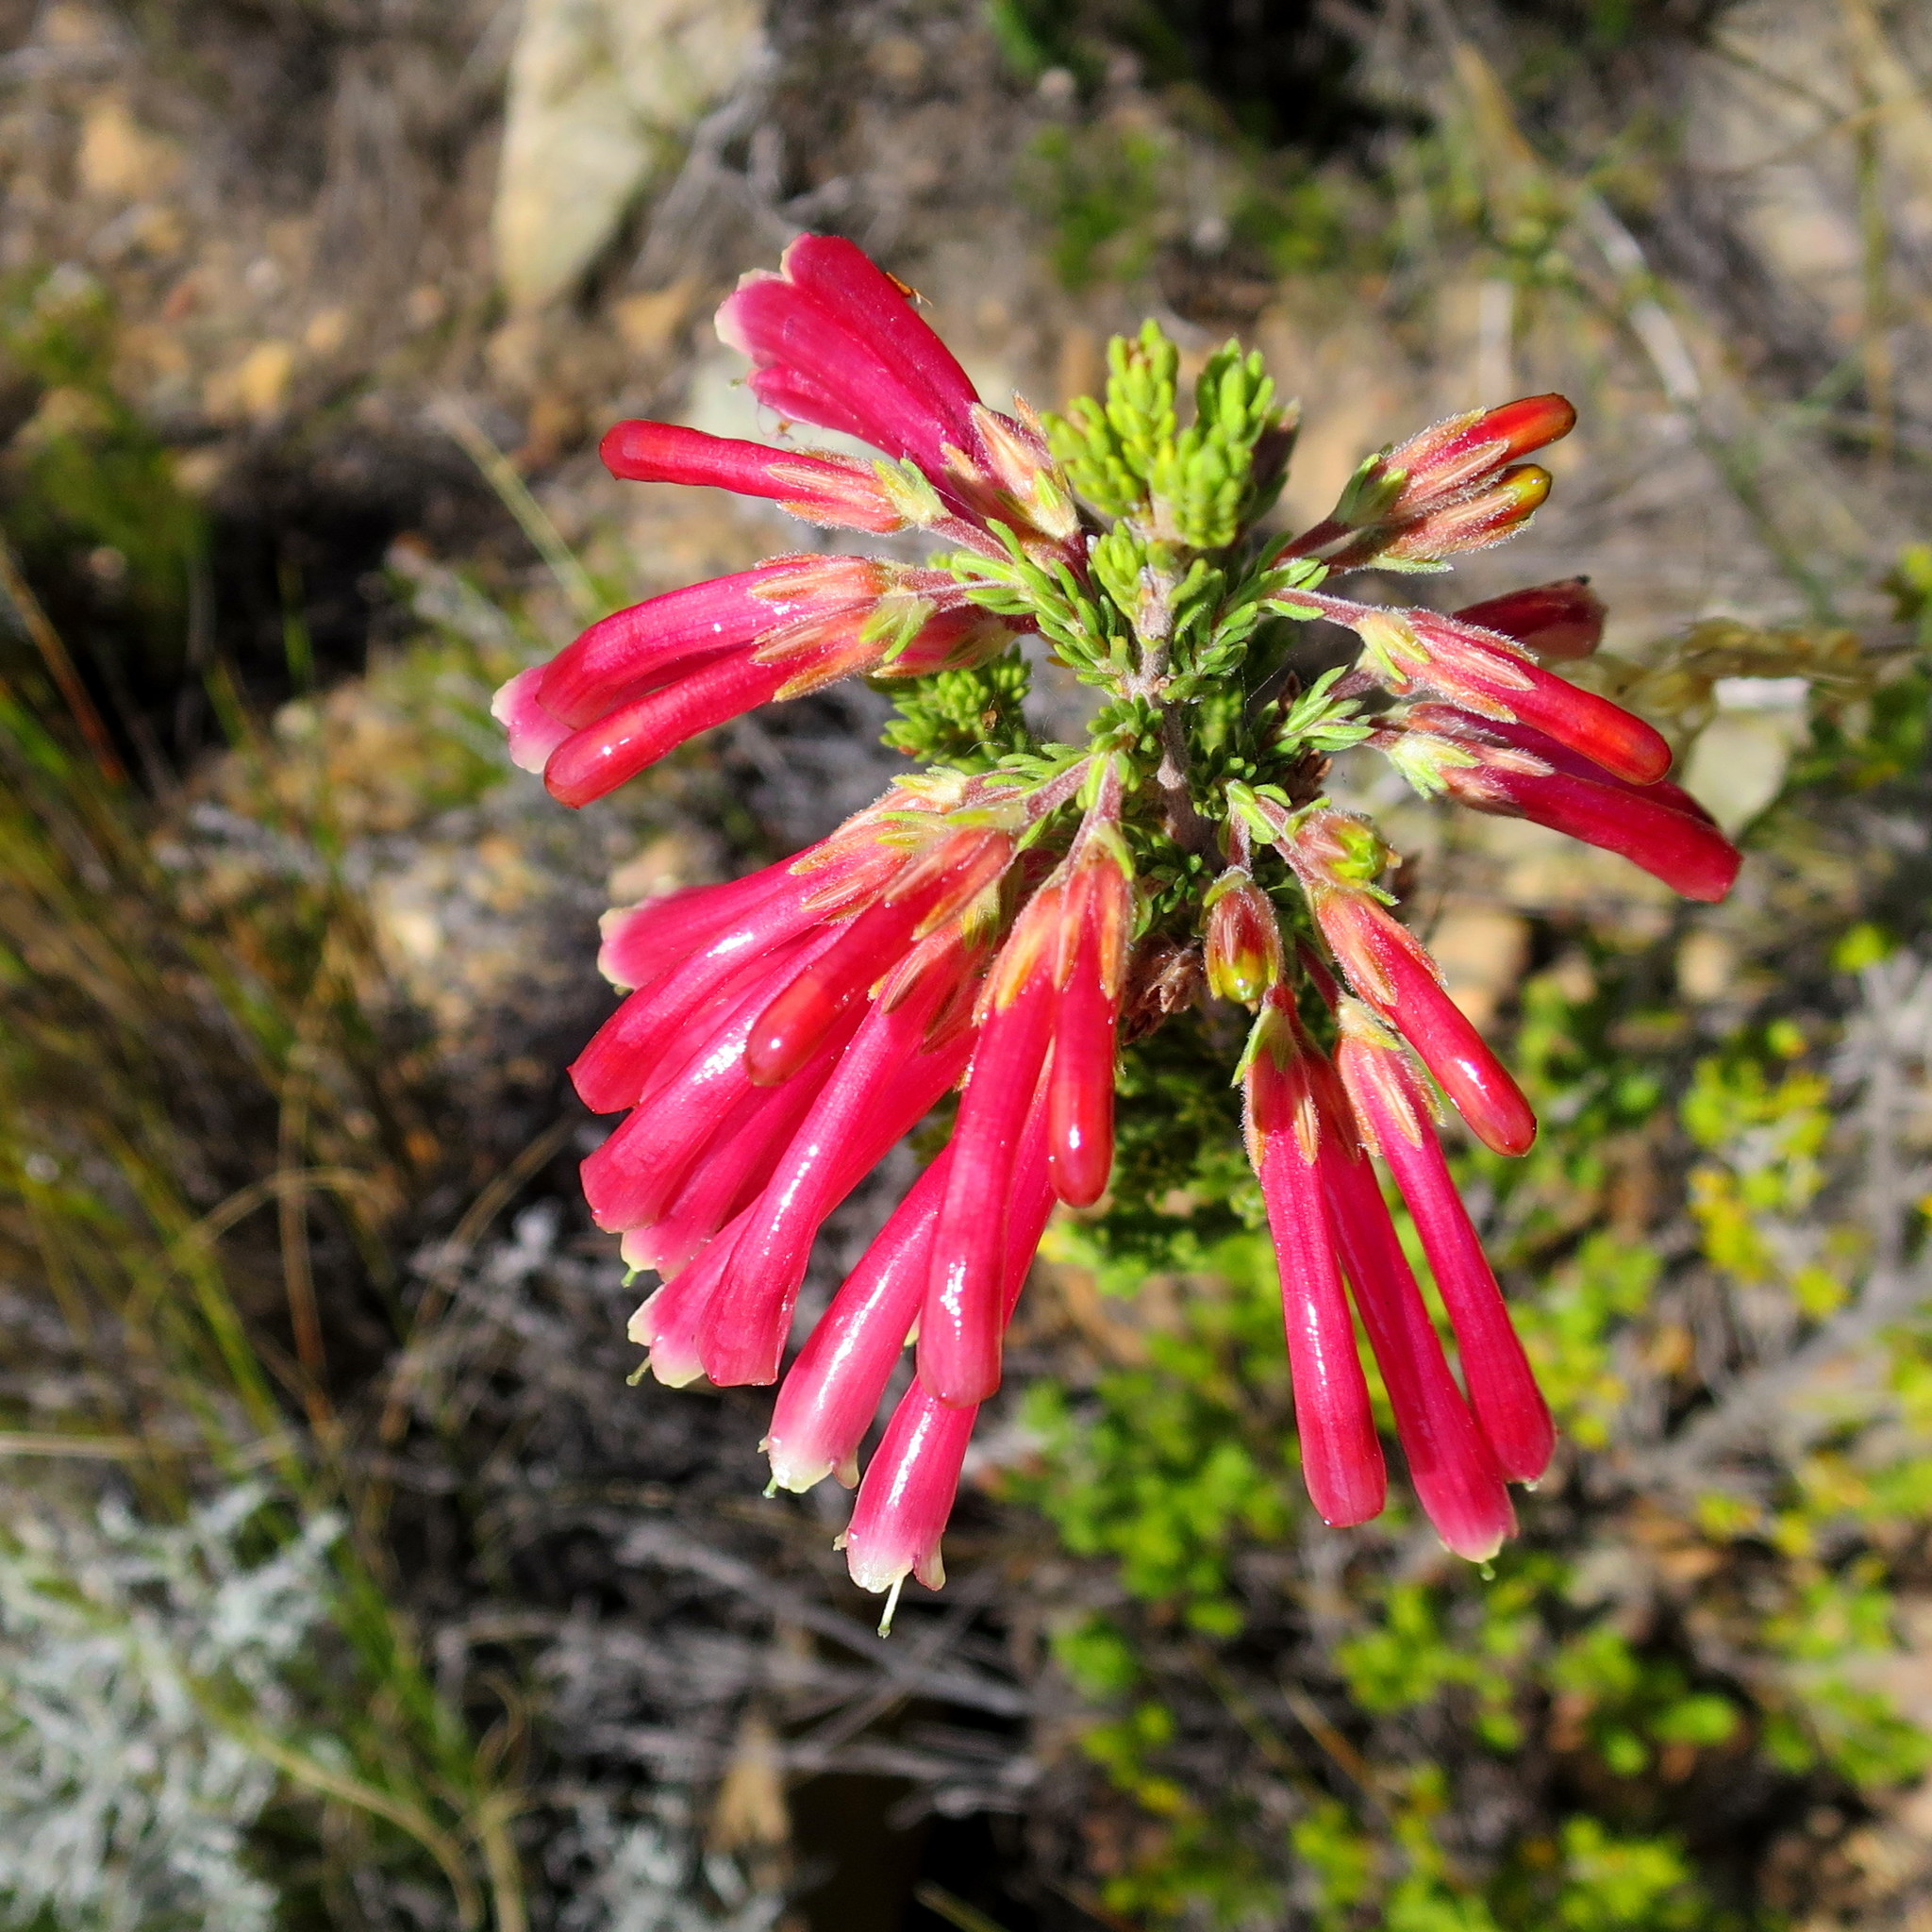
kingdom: Plantae
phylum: Tracheophyta
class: Magnoliopsida
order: Ericales
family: Ericaceae
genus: Erica
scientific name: Erica discolor
